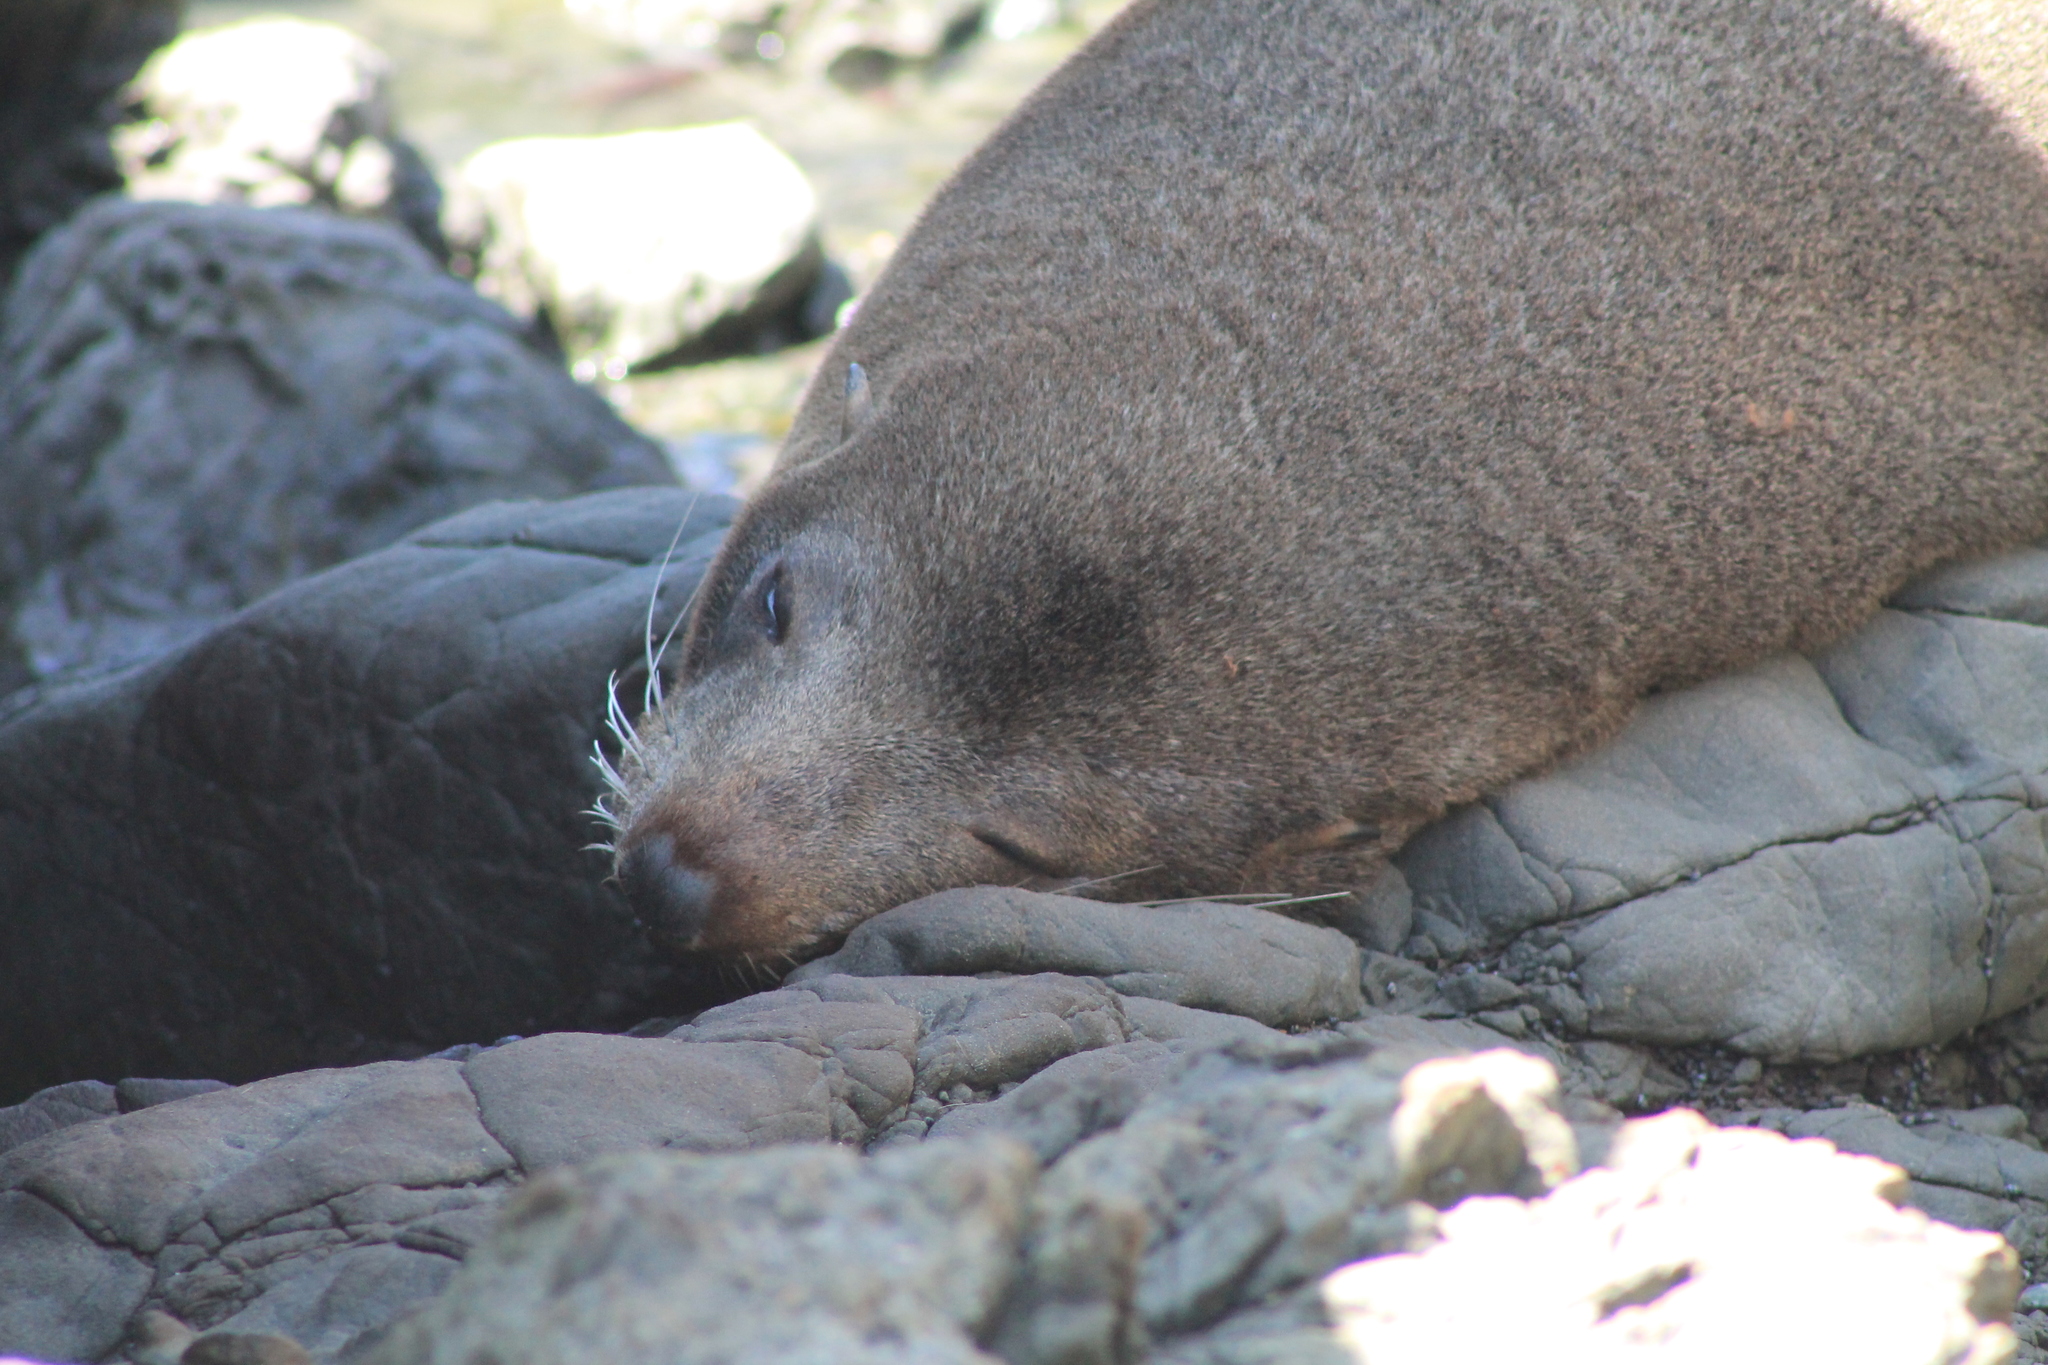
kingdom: Animalia
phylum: Chordata
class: Mammalia
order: Carnivora
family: Otariidae
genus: Arctocephalus
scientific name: Arctocephalus forsteri
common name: New zealand fur seal
